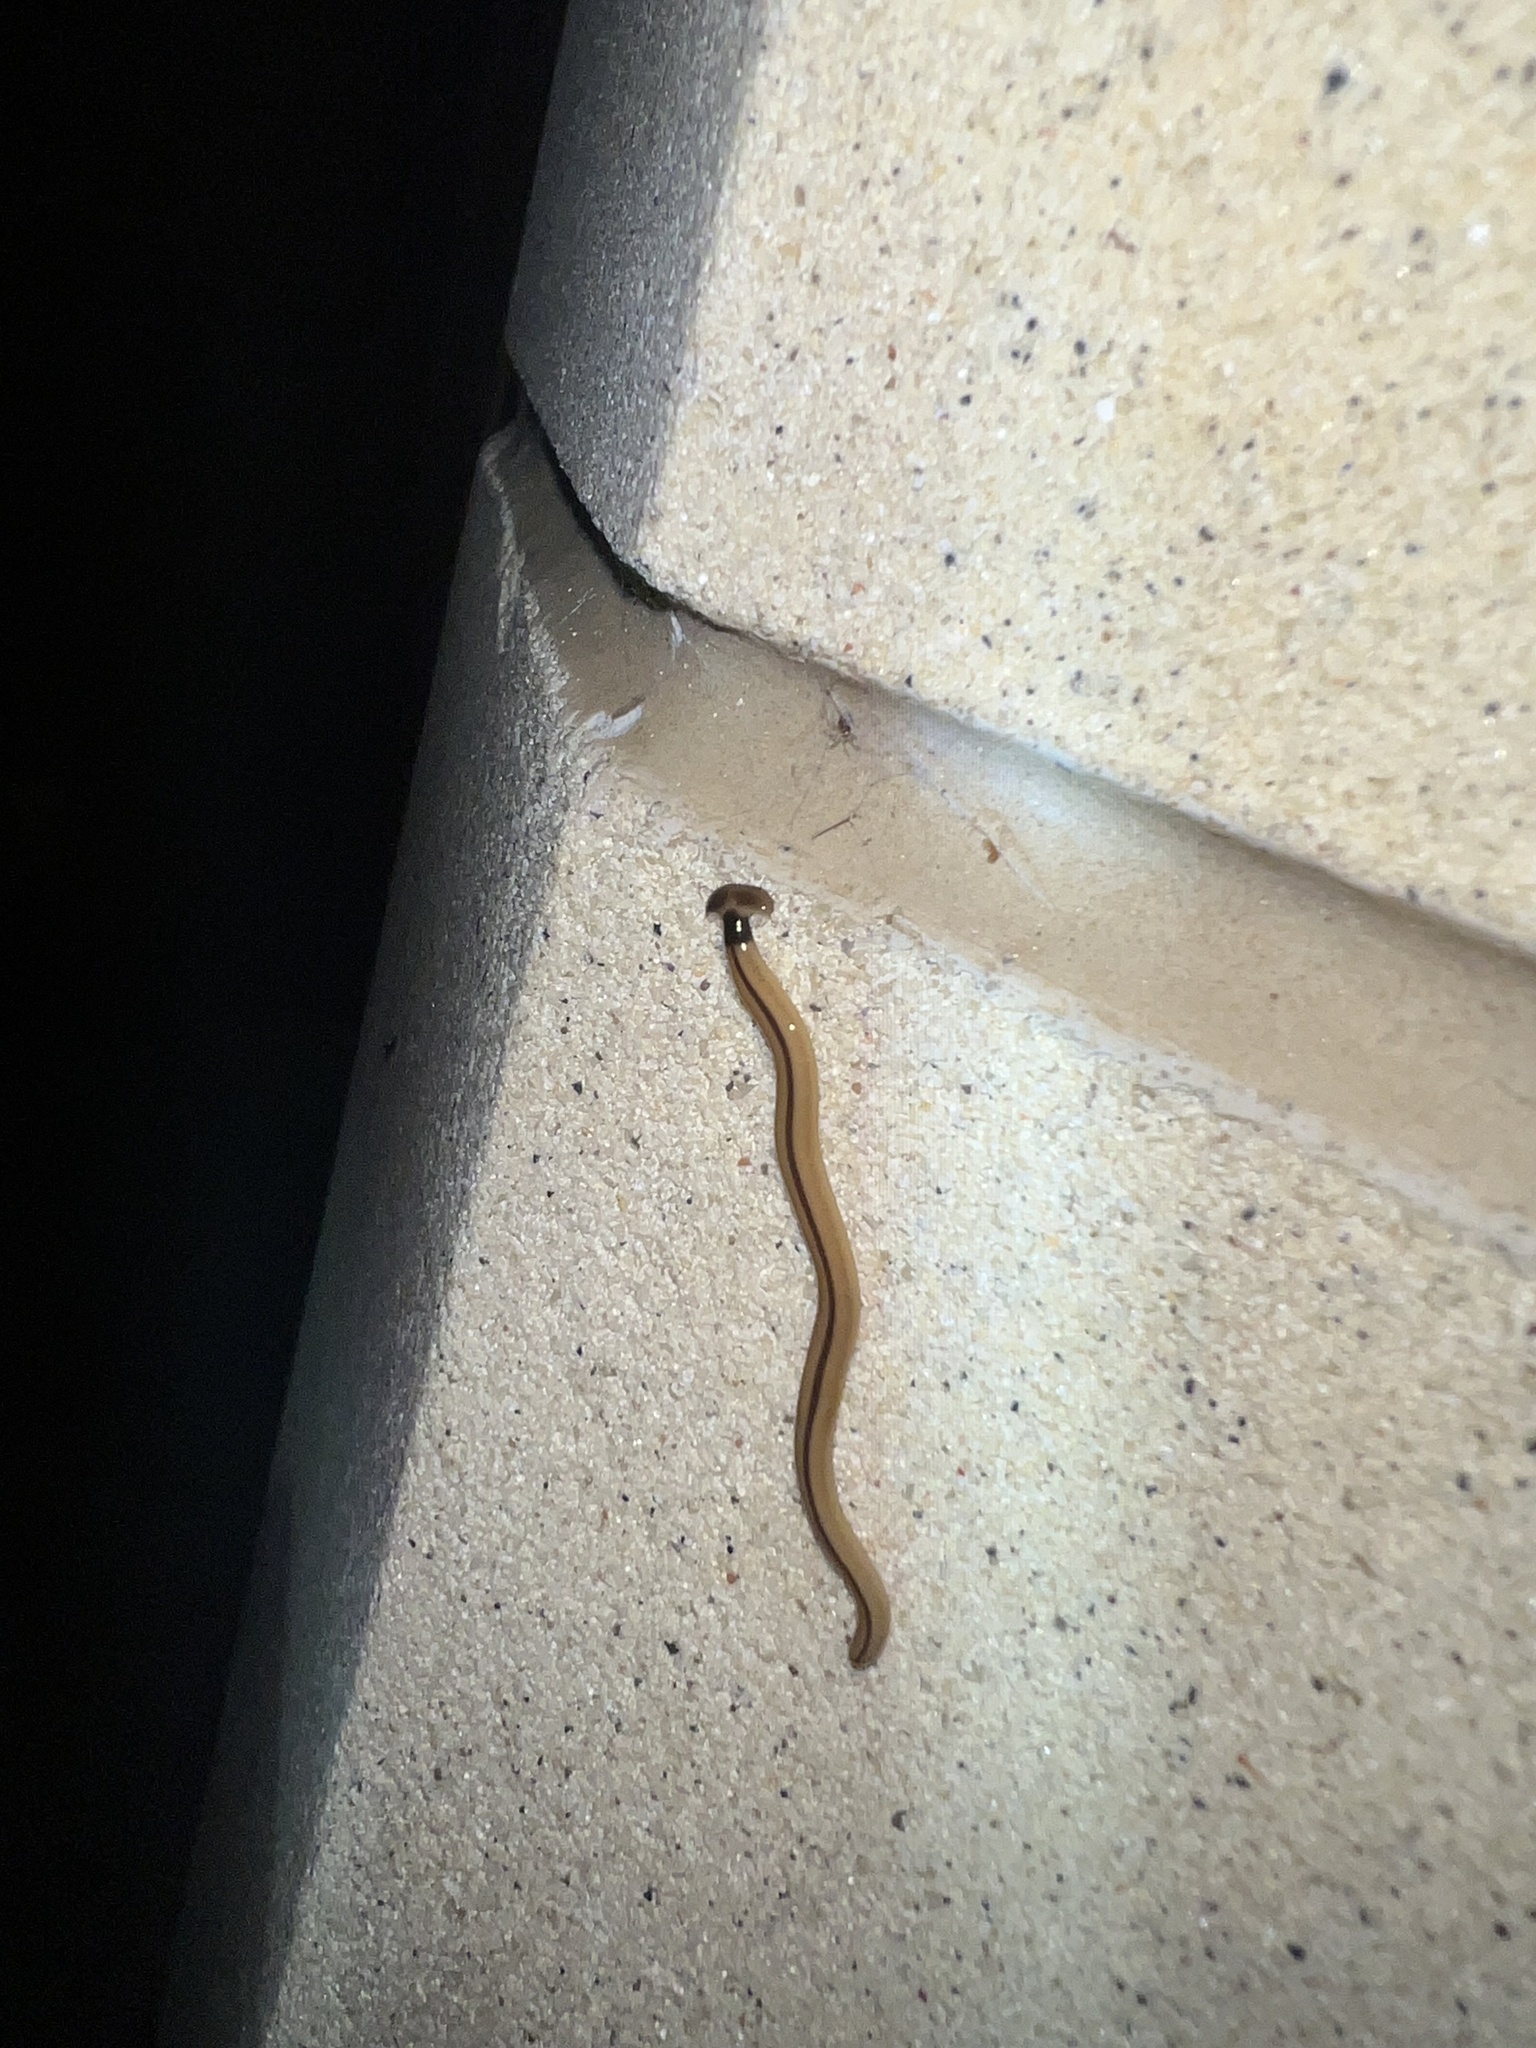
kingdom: Animalia
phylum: Platyhelminthes
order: Tricladida
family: Geoplanidae
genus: Bipalium
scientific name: Bipalium vagum
